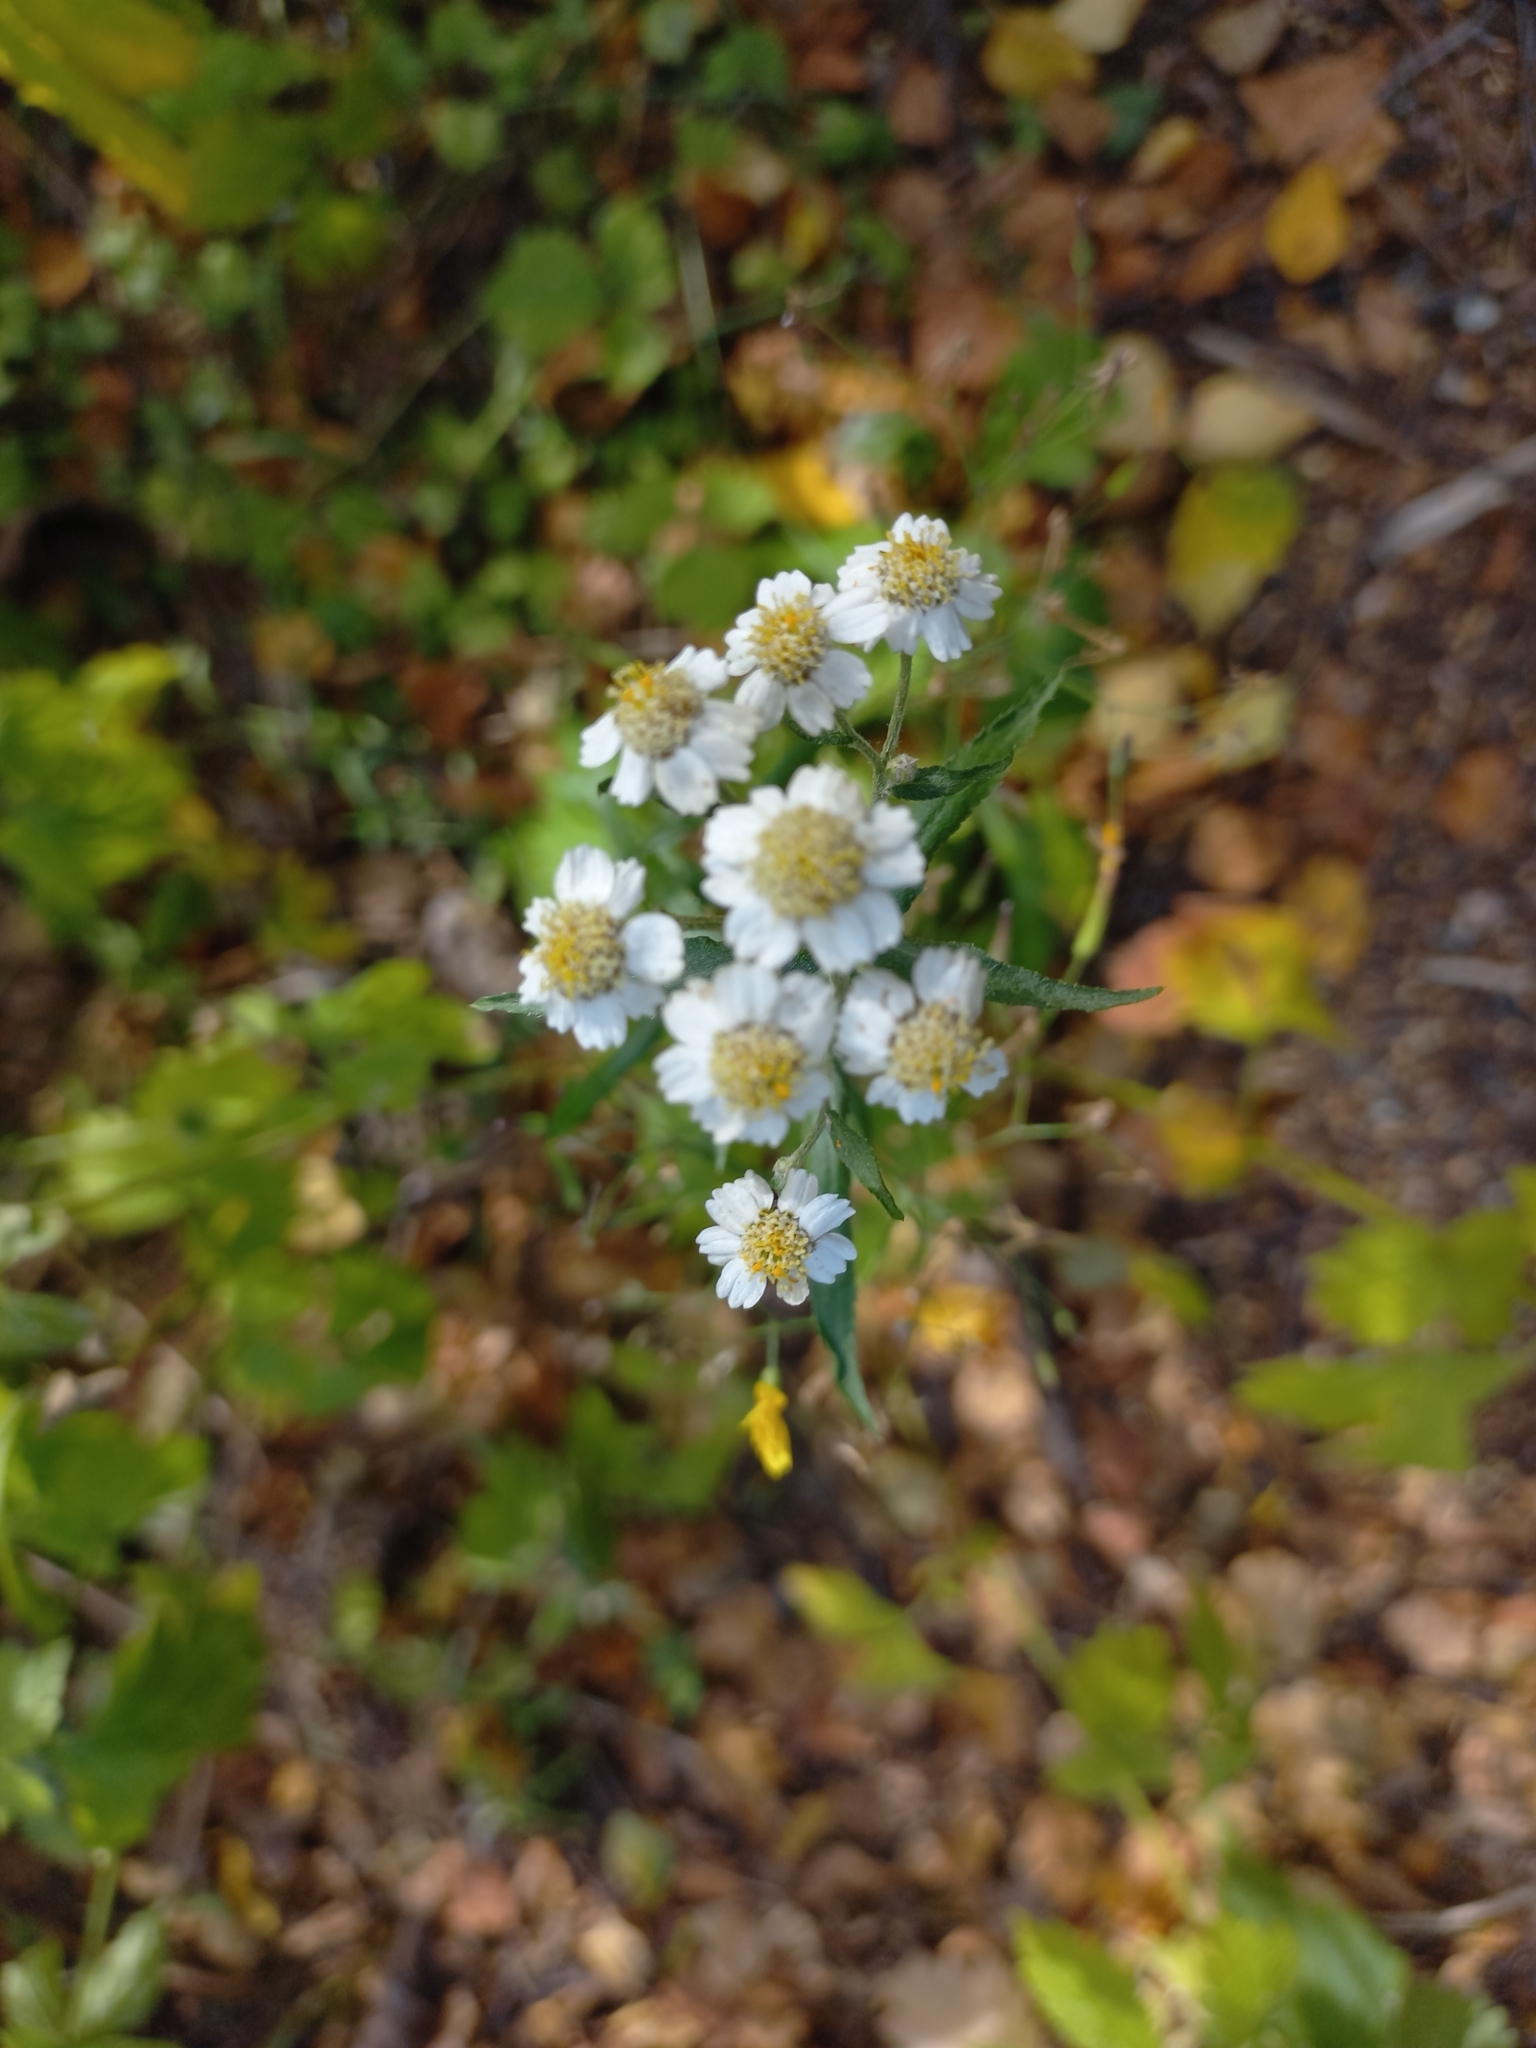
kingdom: Plantae
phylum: Tracheophyta
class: Magnoliopsida
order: Asterales
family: Asteraceae
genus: Achillea
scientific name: Achillea ptarmica
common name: Sneezeweed
